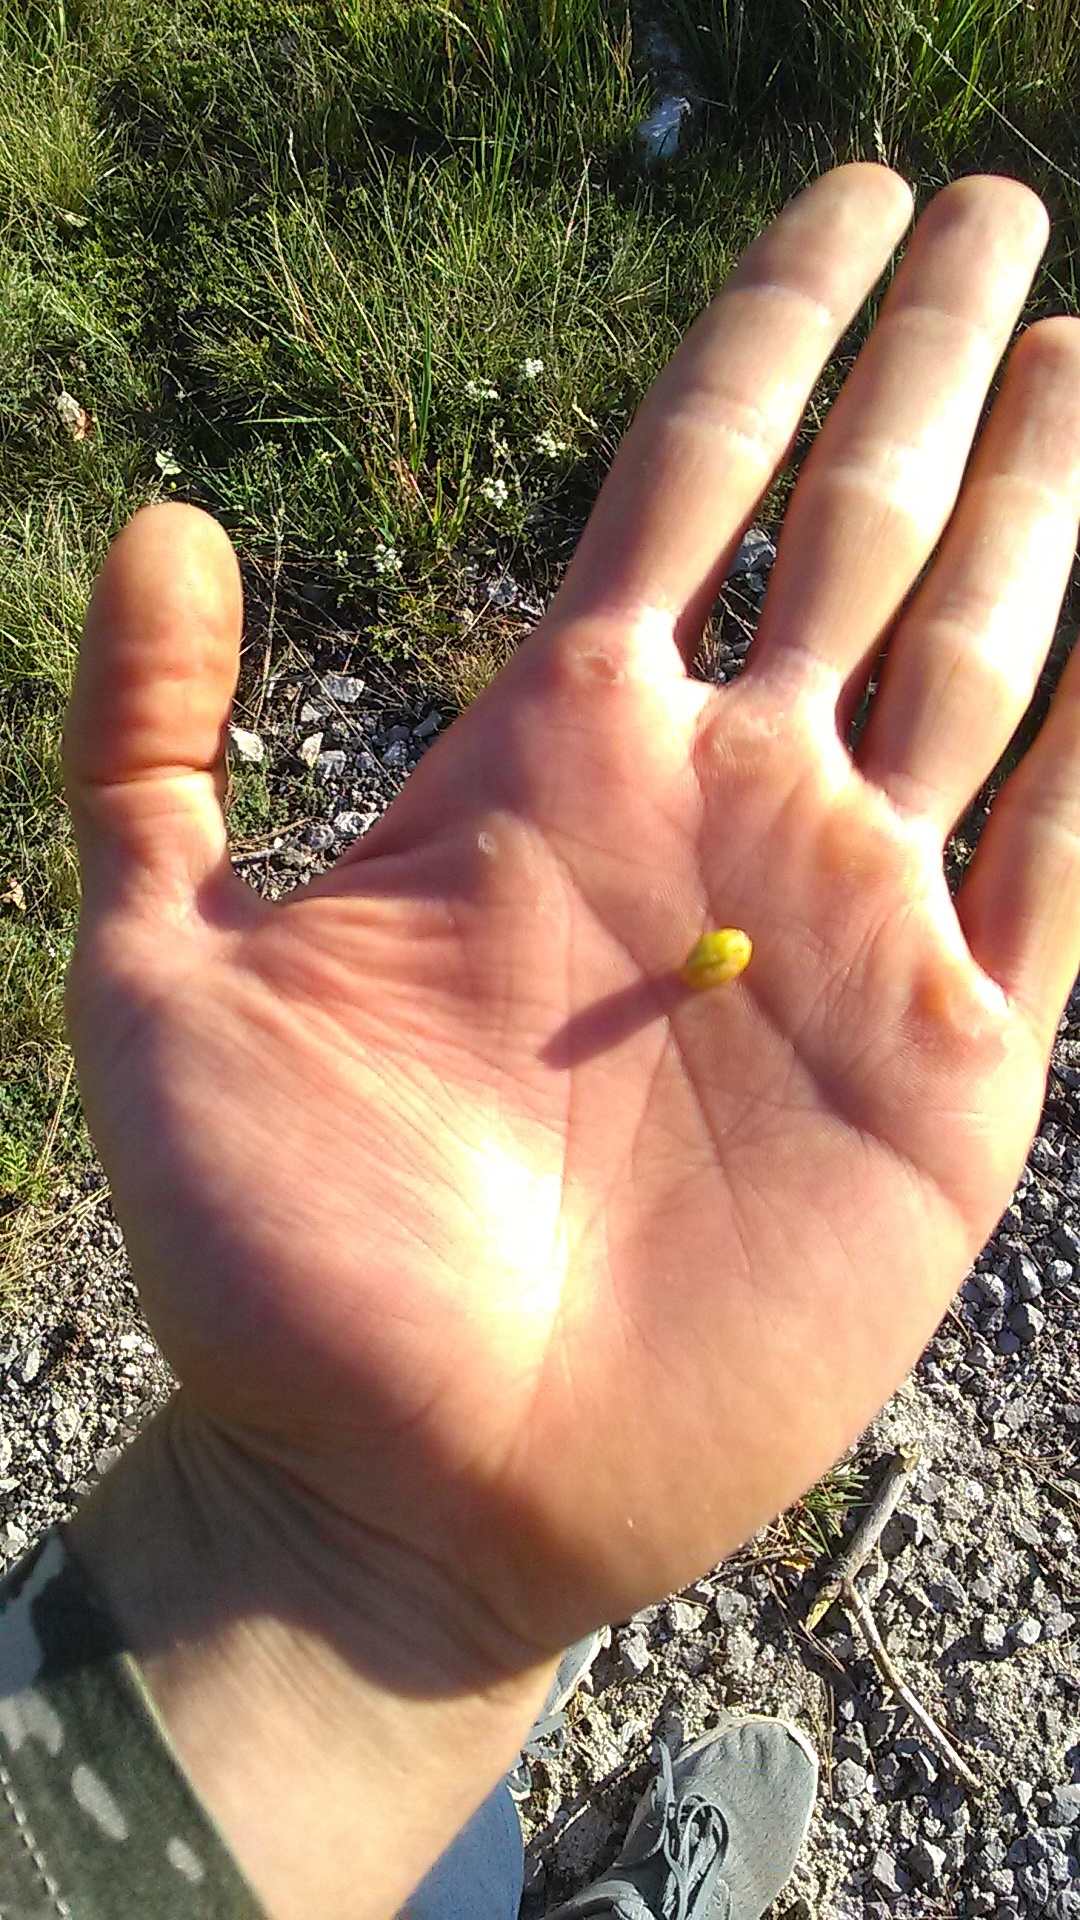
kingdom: Plantae
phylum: Tracheophyta
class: Magnoliopsida
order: Rosales
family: Rosaceae
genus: Crataegus
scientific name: Crataegus monogyna
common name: Hawthorn
